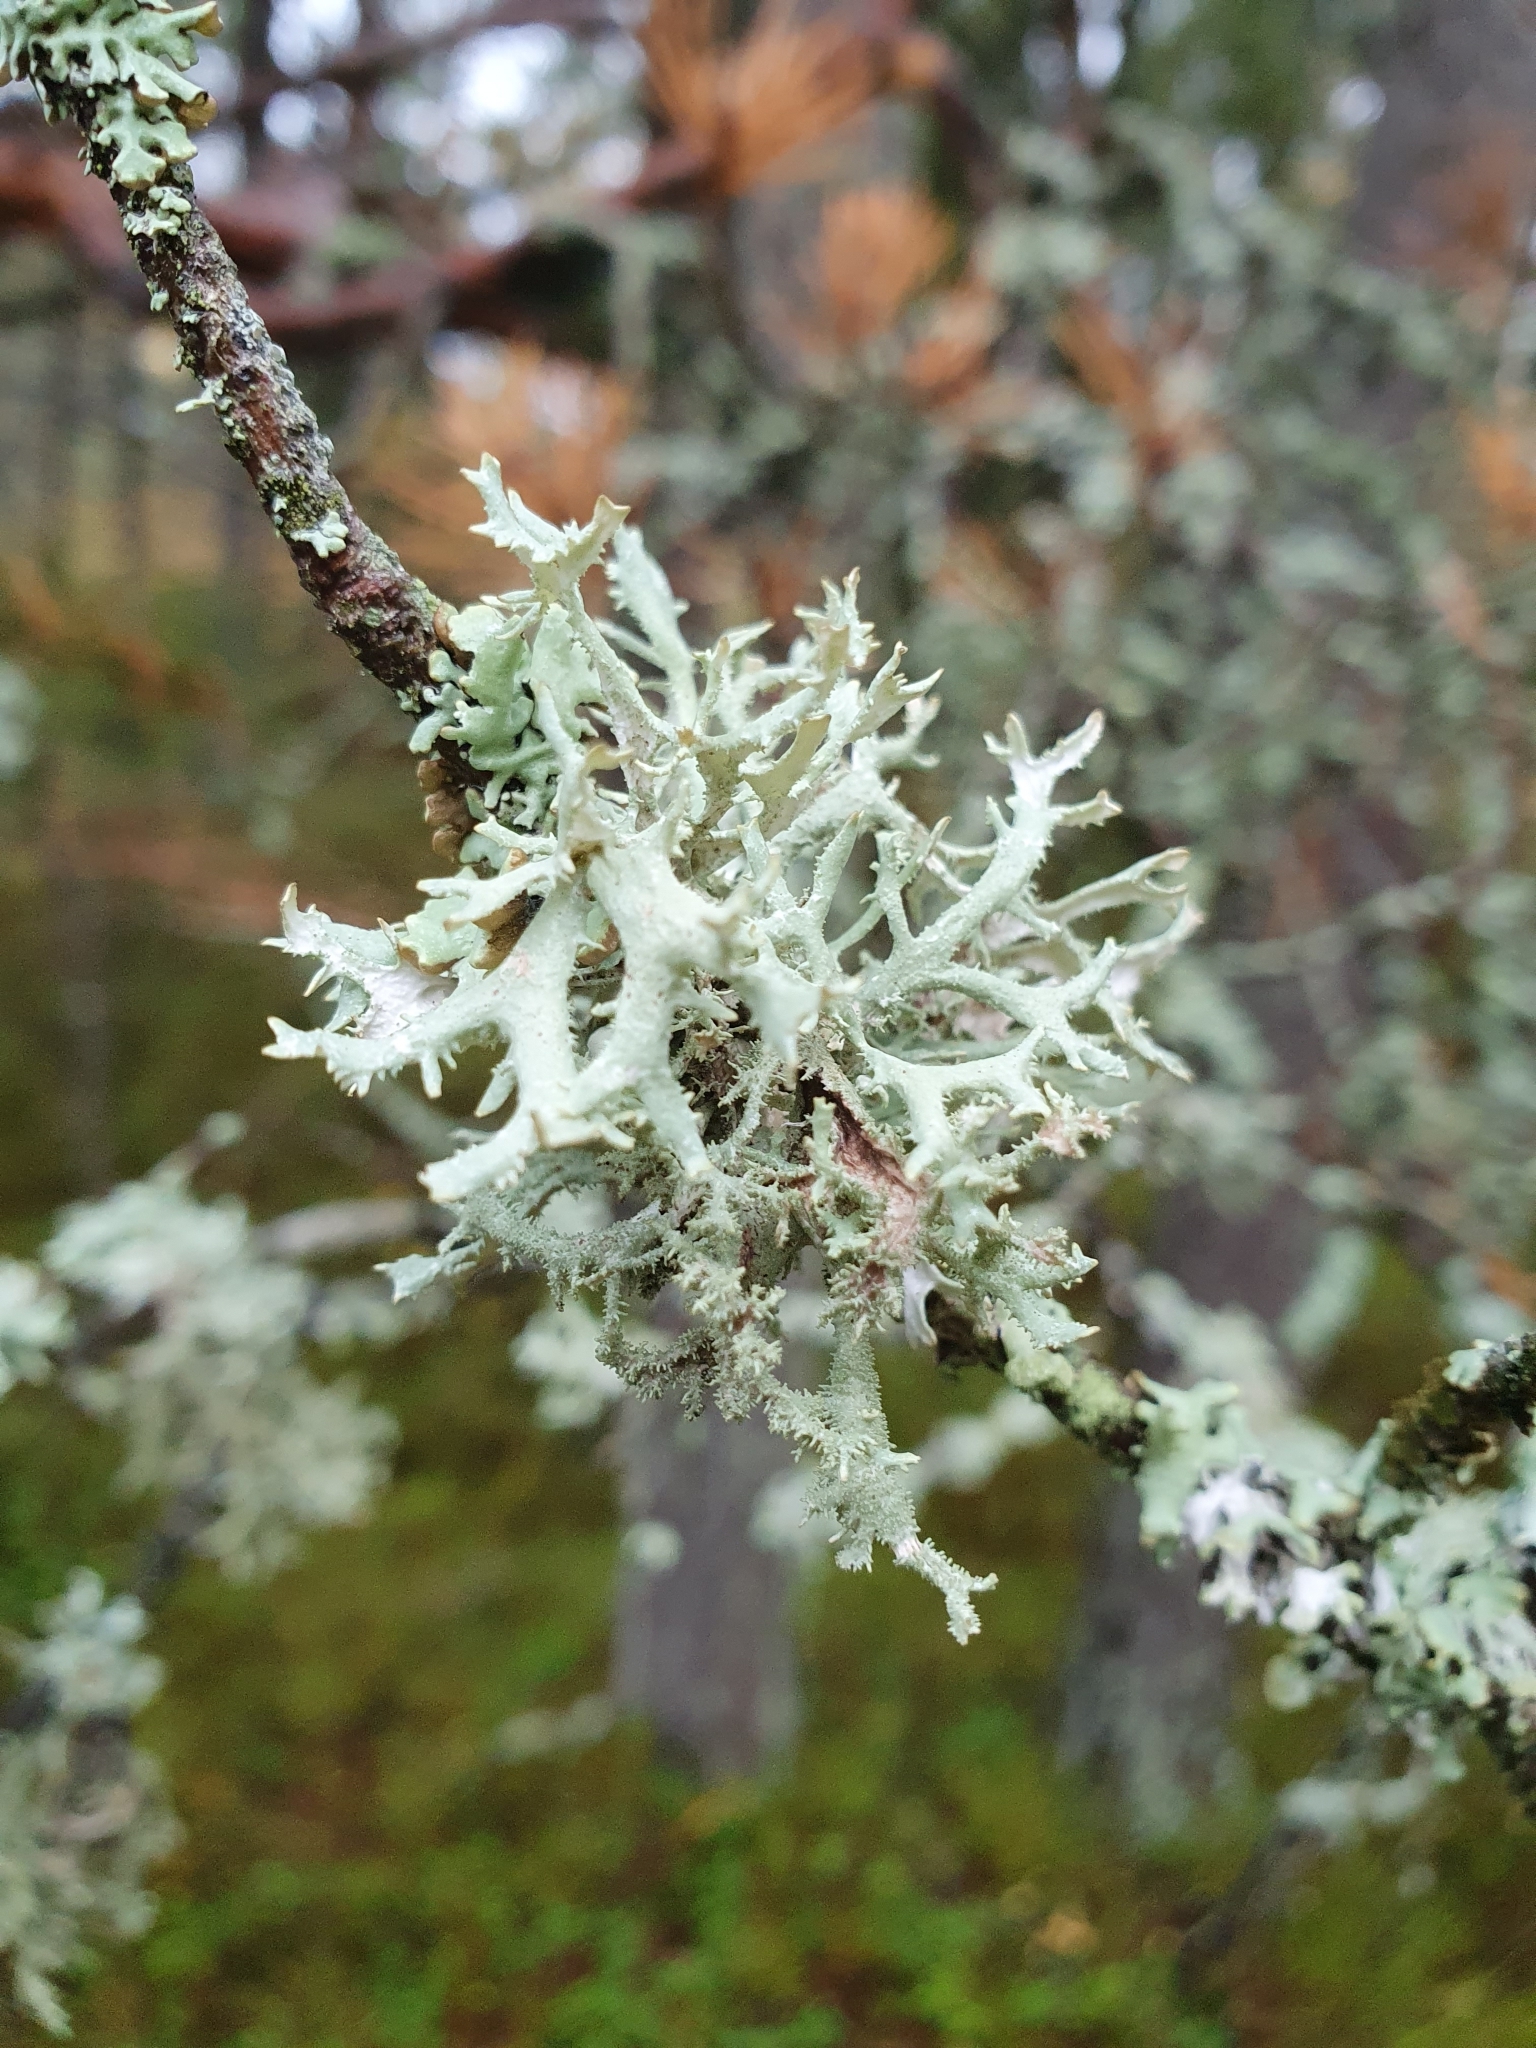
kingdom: Fungi
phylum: Ascomycota
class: Lecanoromycetes
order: Lecanorales
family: Parmeliaceae
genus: Pseudevernia
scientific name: Pseudevernia furfuracea
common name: Tree moss
